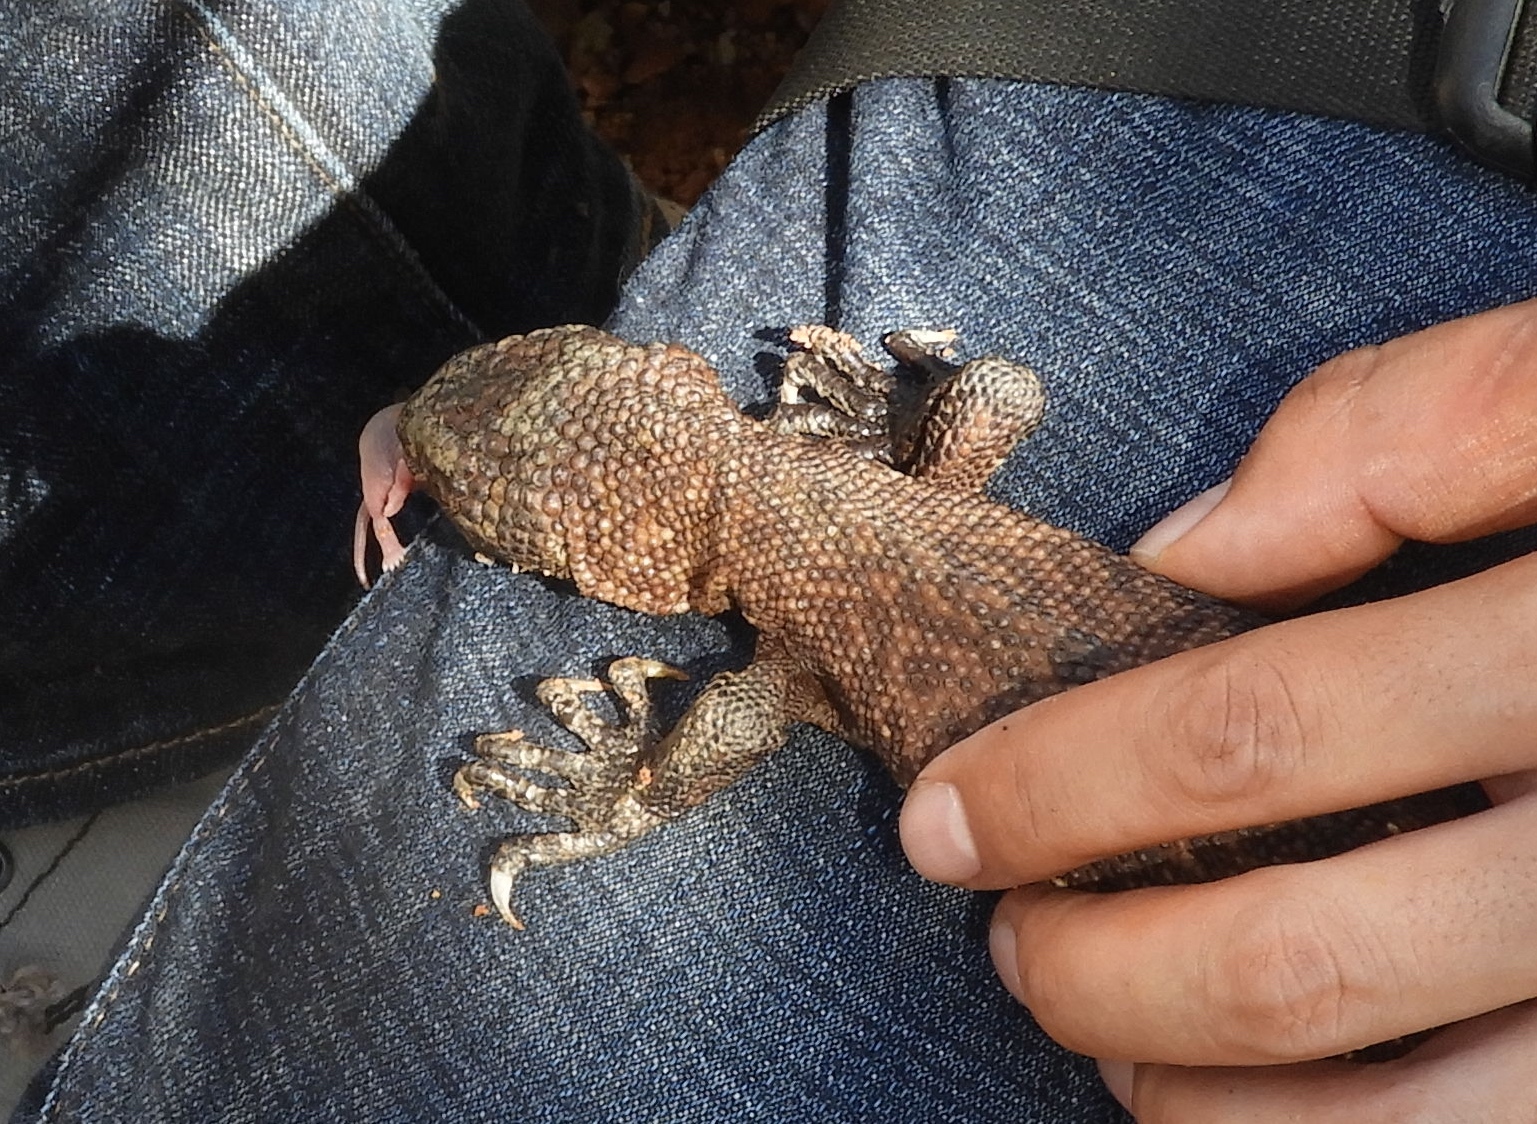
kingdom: Animalia
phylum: Chordata
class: Squamata
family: Helodermatidae
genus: Heloderma
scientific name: Heloderma horridum
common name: Mexican beaded lizard
